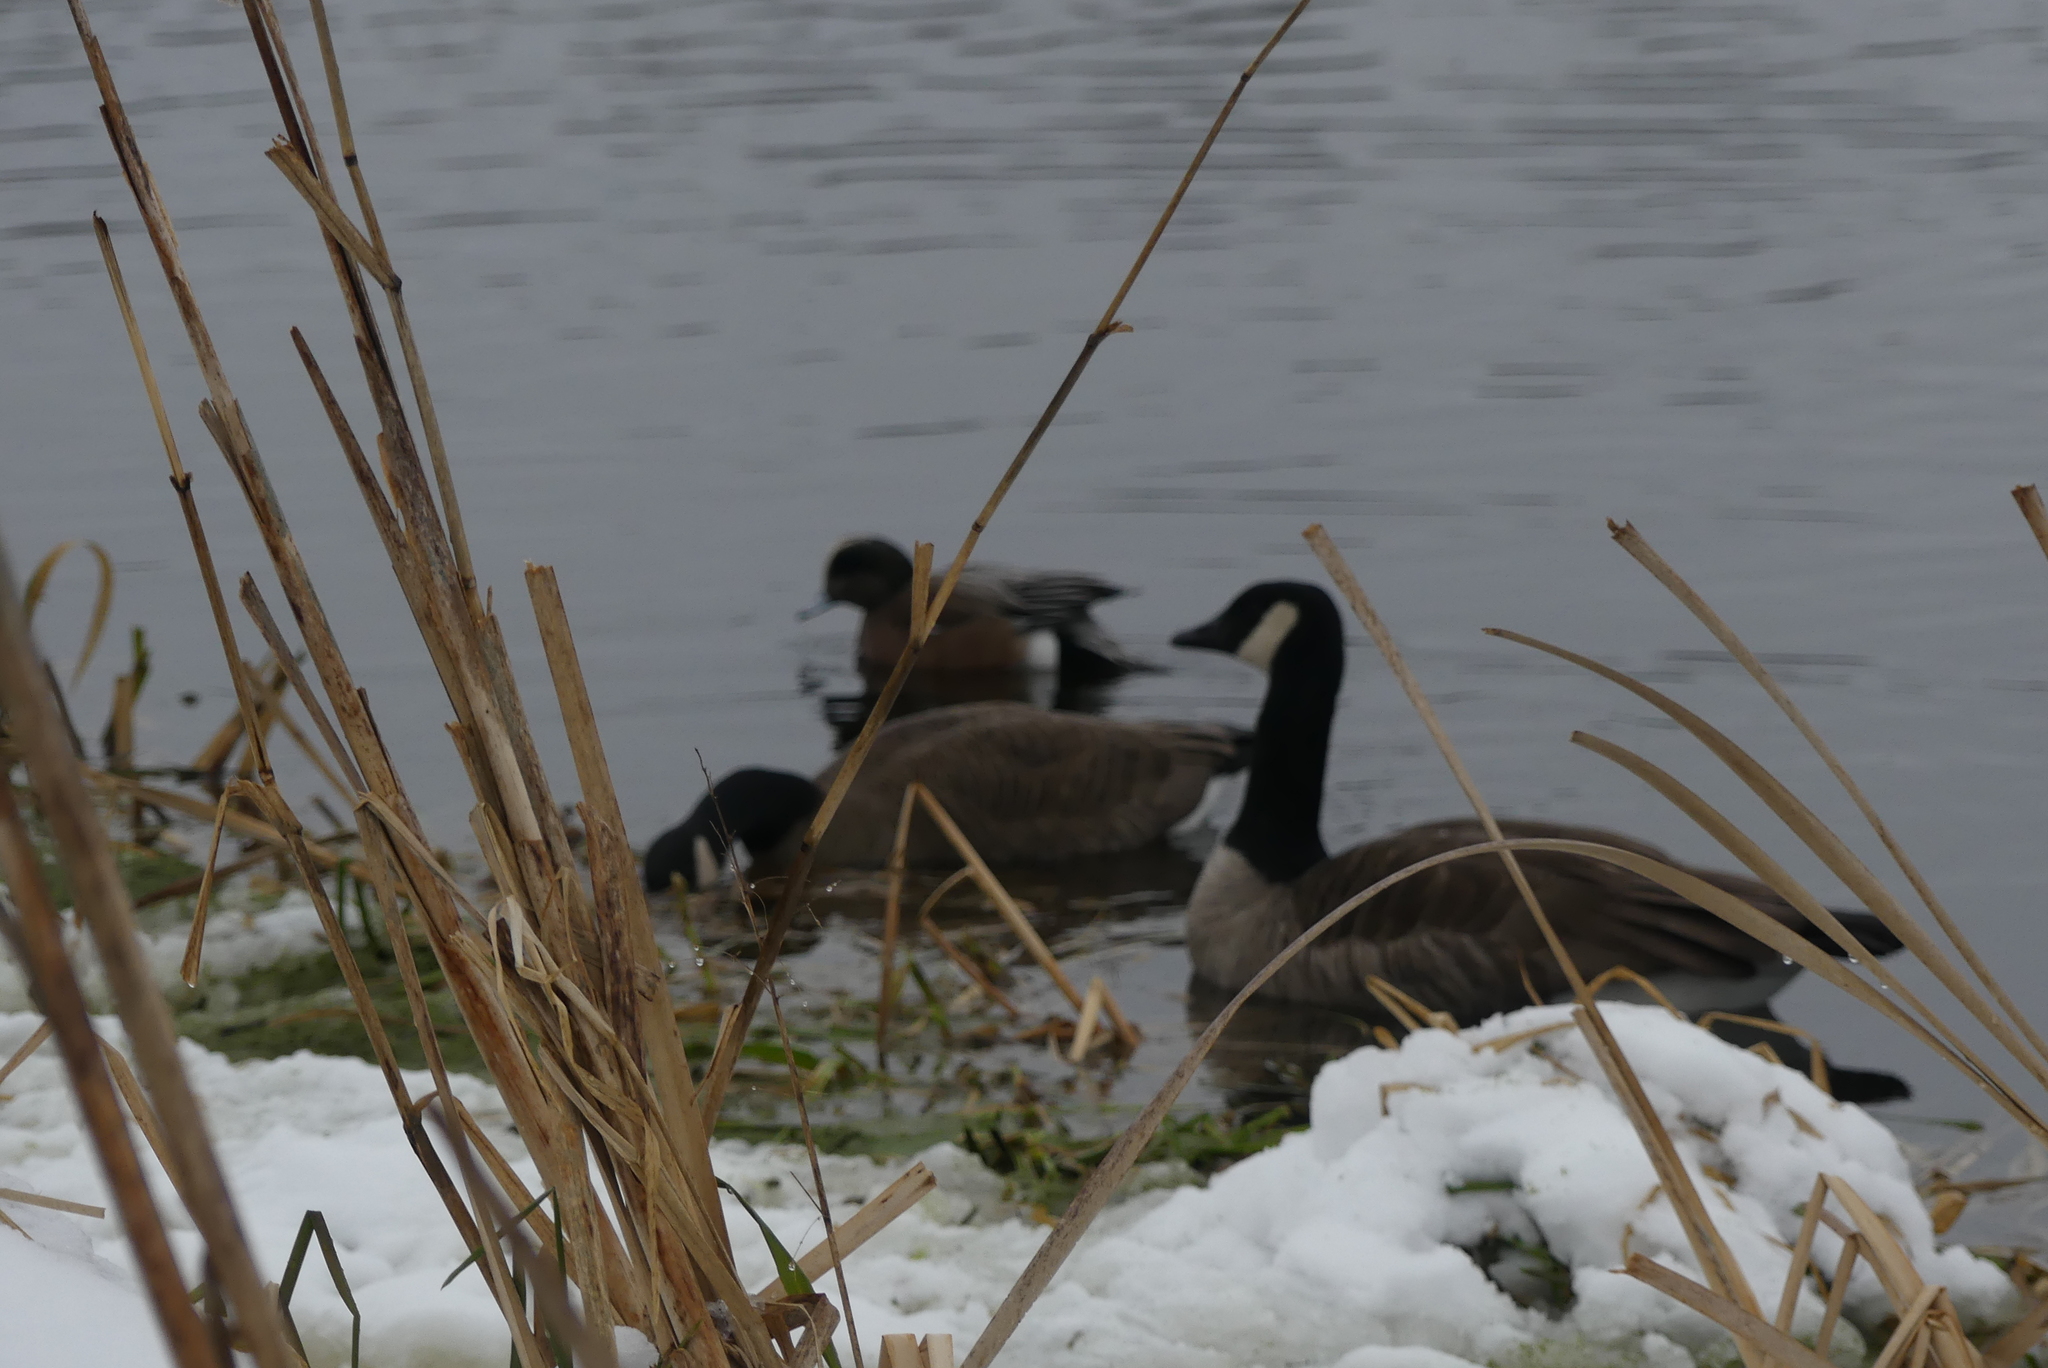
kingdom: Animalia
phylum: Chordata
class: Aves
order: Anseriformes
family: Anatidae
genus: Branta
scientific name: Branta canadensis
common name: Canada goose
